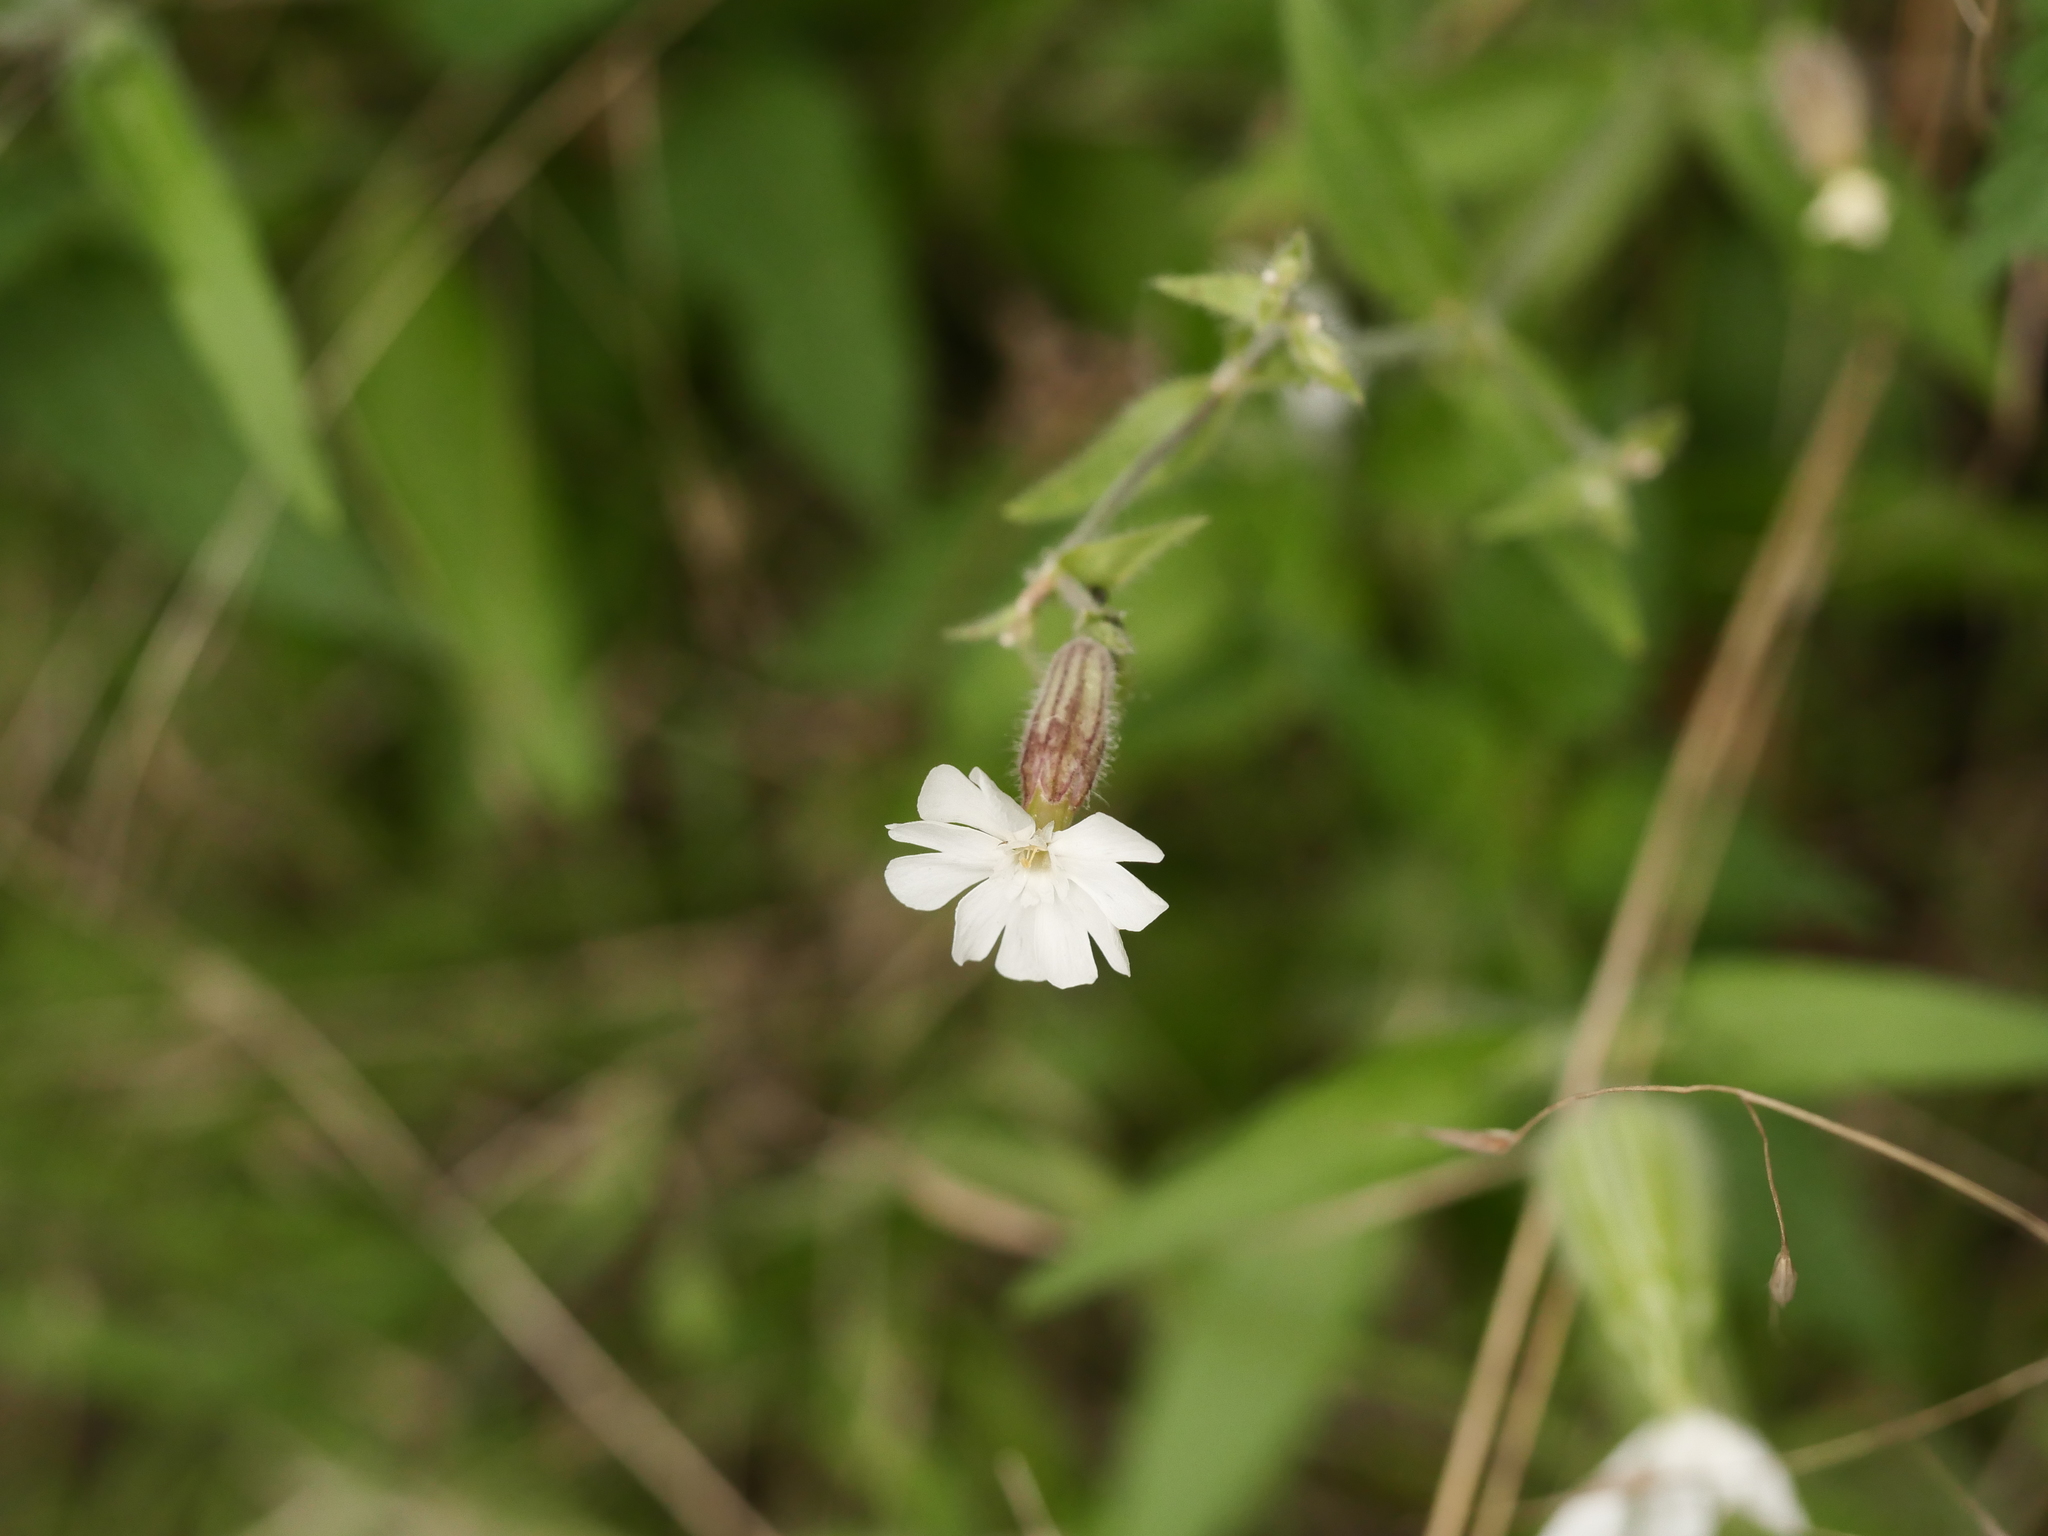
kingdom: Plantae
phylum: Tracheophyta
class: Magnoliopsida
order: Caryophyllales
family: Caryophyllaceae
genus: Silene
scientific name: Silene latifolia
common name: White campion
